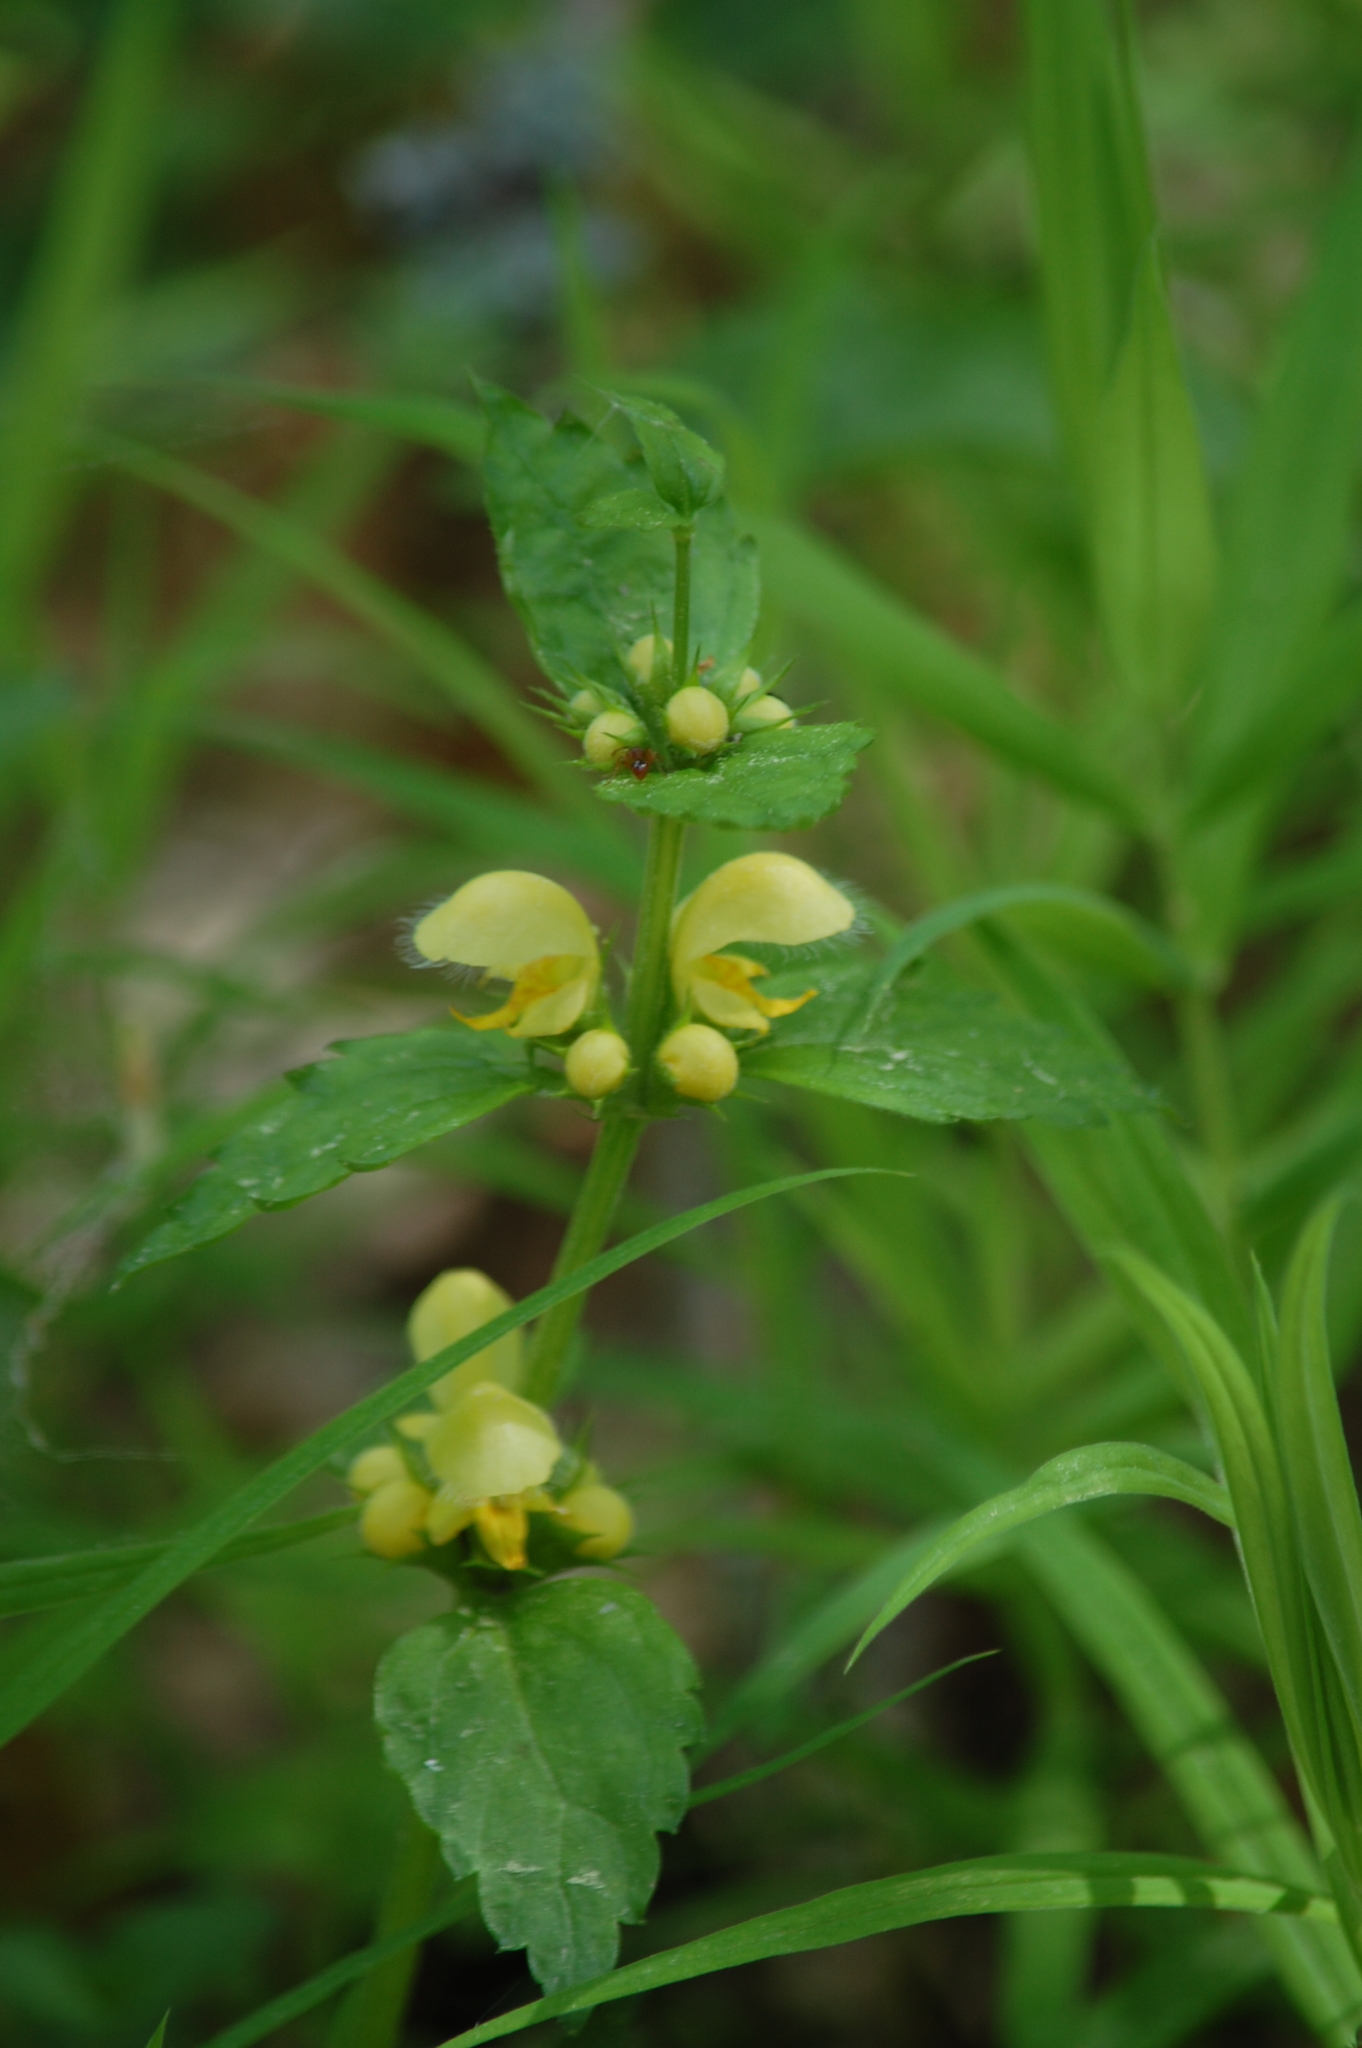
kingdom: Plantae
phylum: Tracheophyta
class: Magnoliopsida
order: Lamiales
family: Lamiaceae
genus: Lamium
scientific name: Lamium galeobdolon
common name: Yellow archangel
